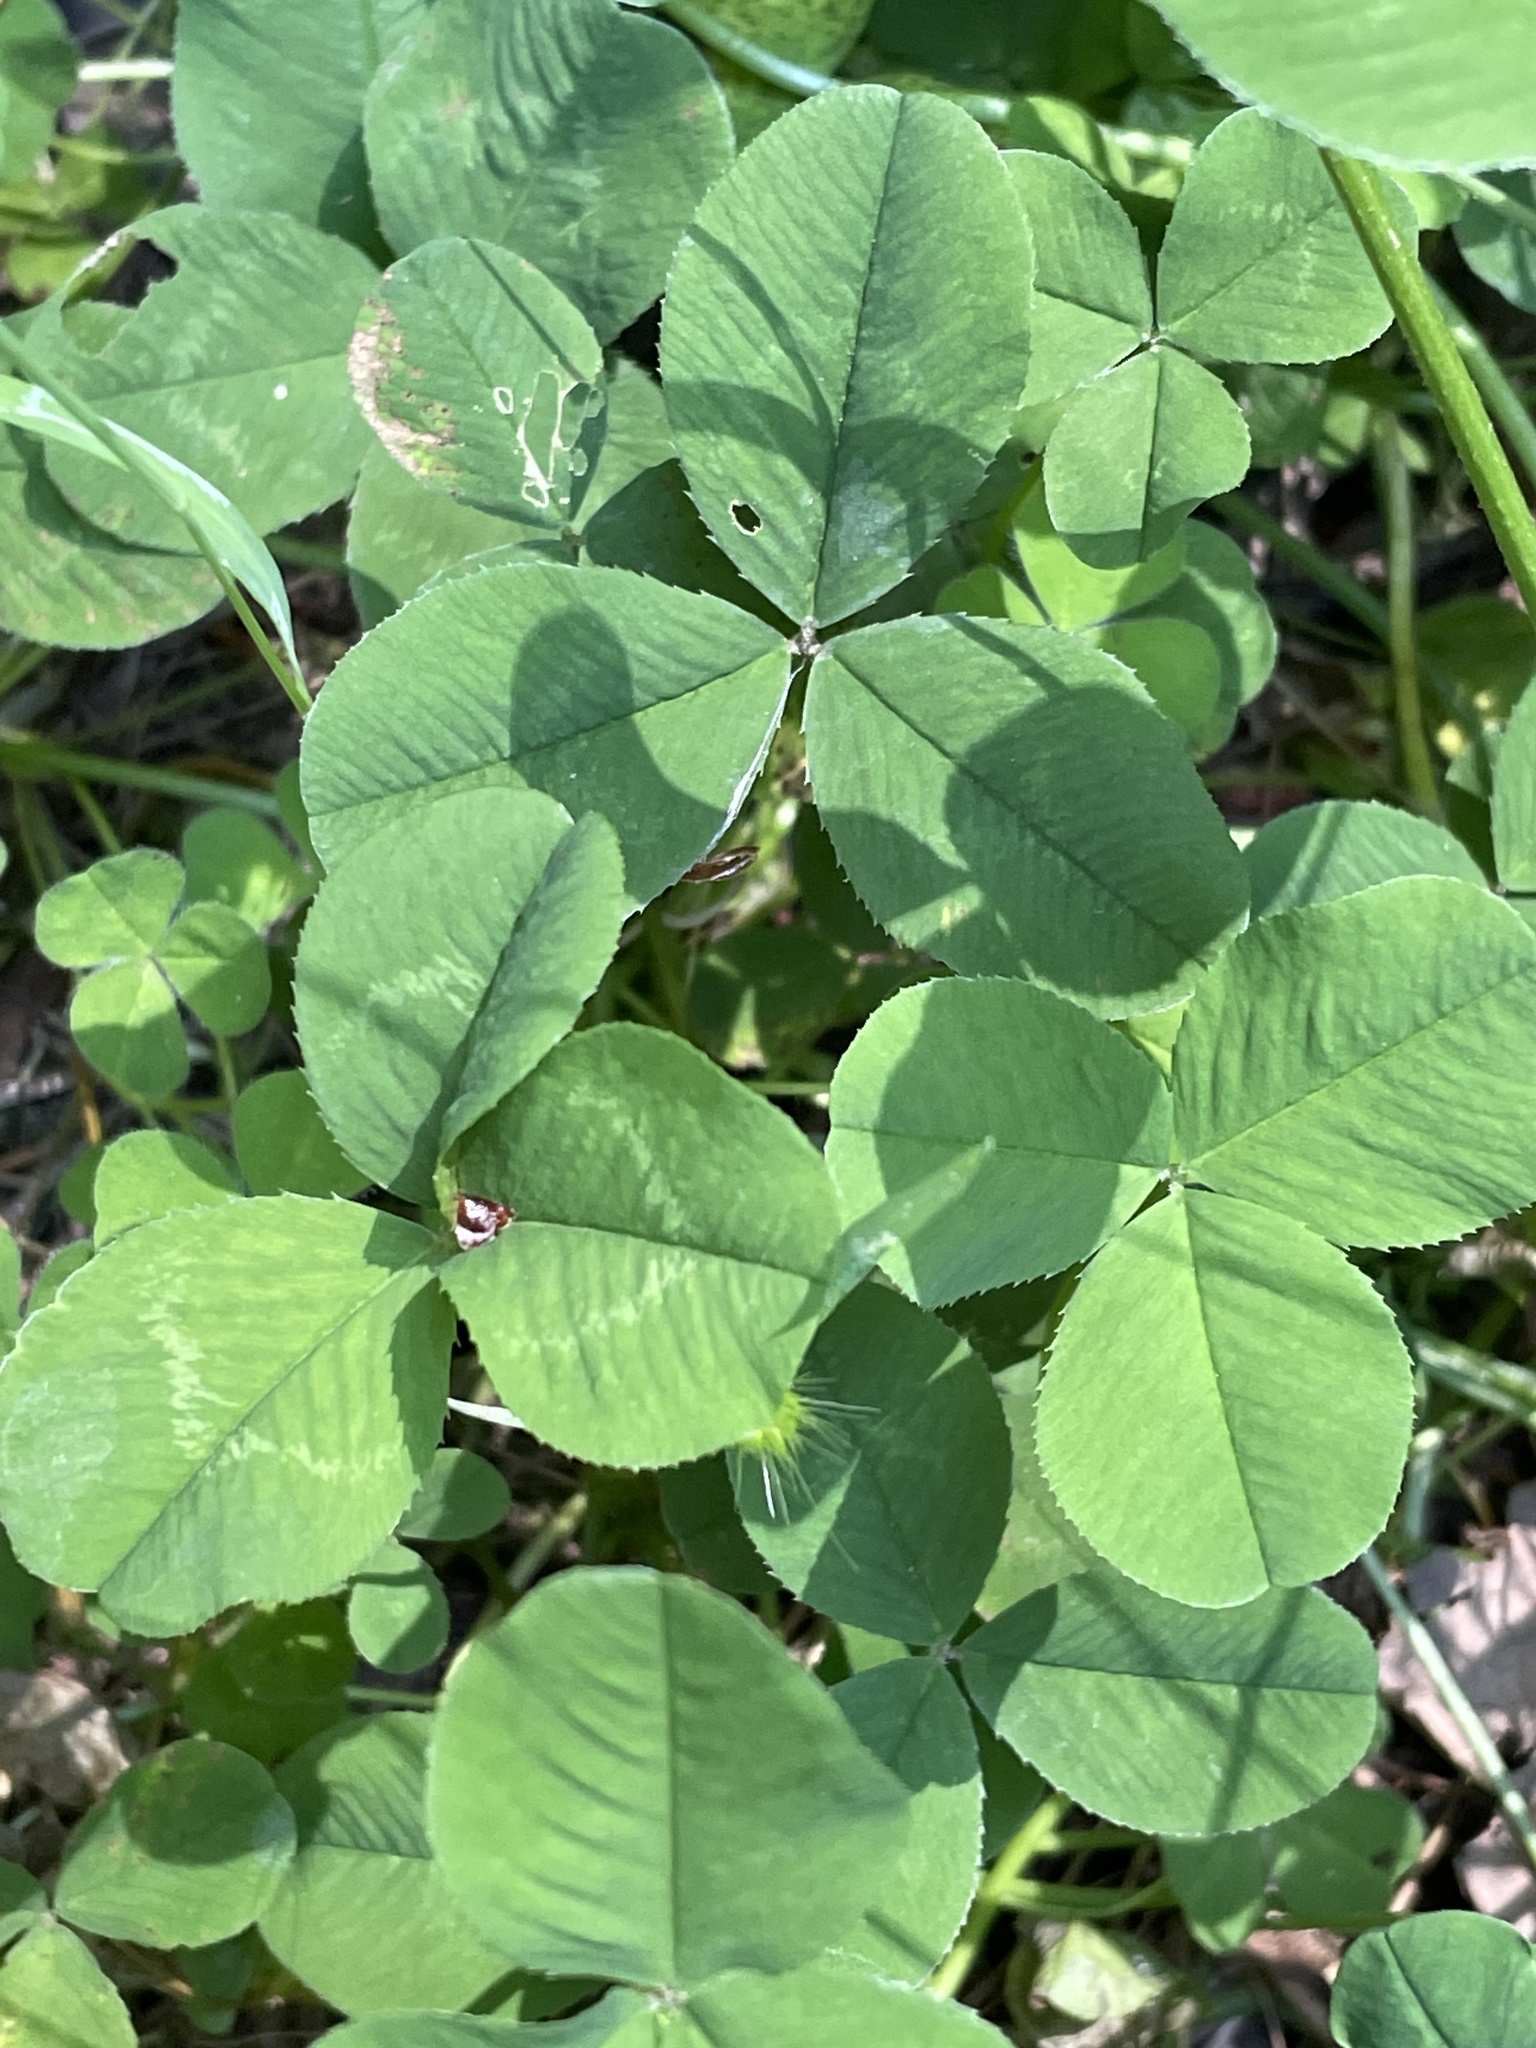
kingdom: Plantae
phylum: Tracheophyta
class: Magnoliopsida
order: Fabales
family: Fabaceae
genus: Trifolium
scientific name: Trifolium repens
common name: White clover
